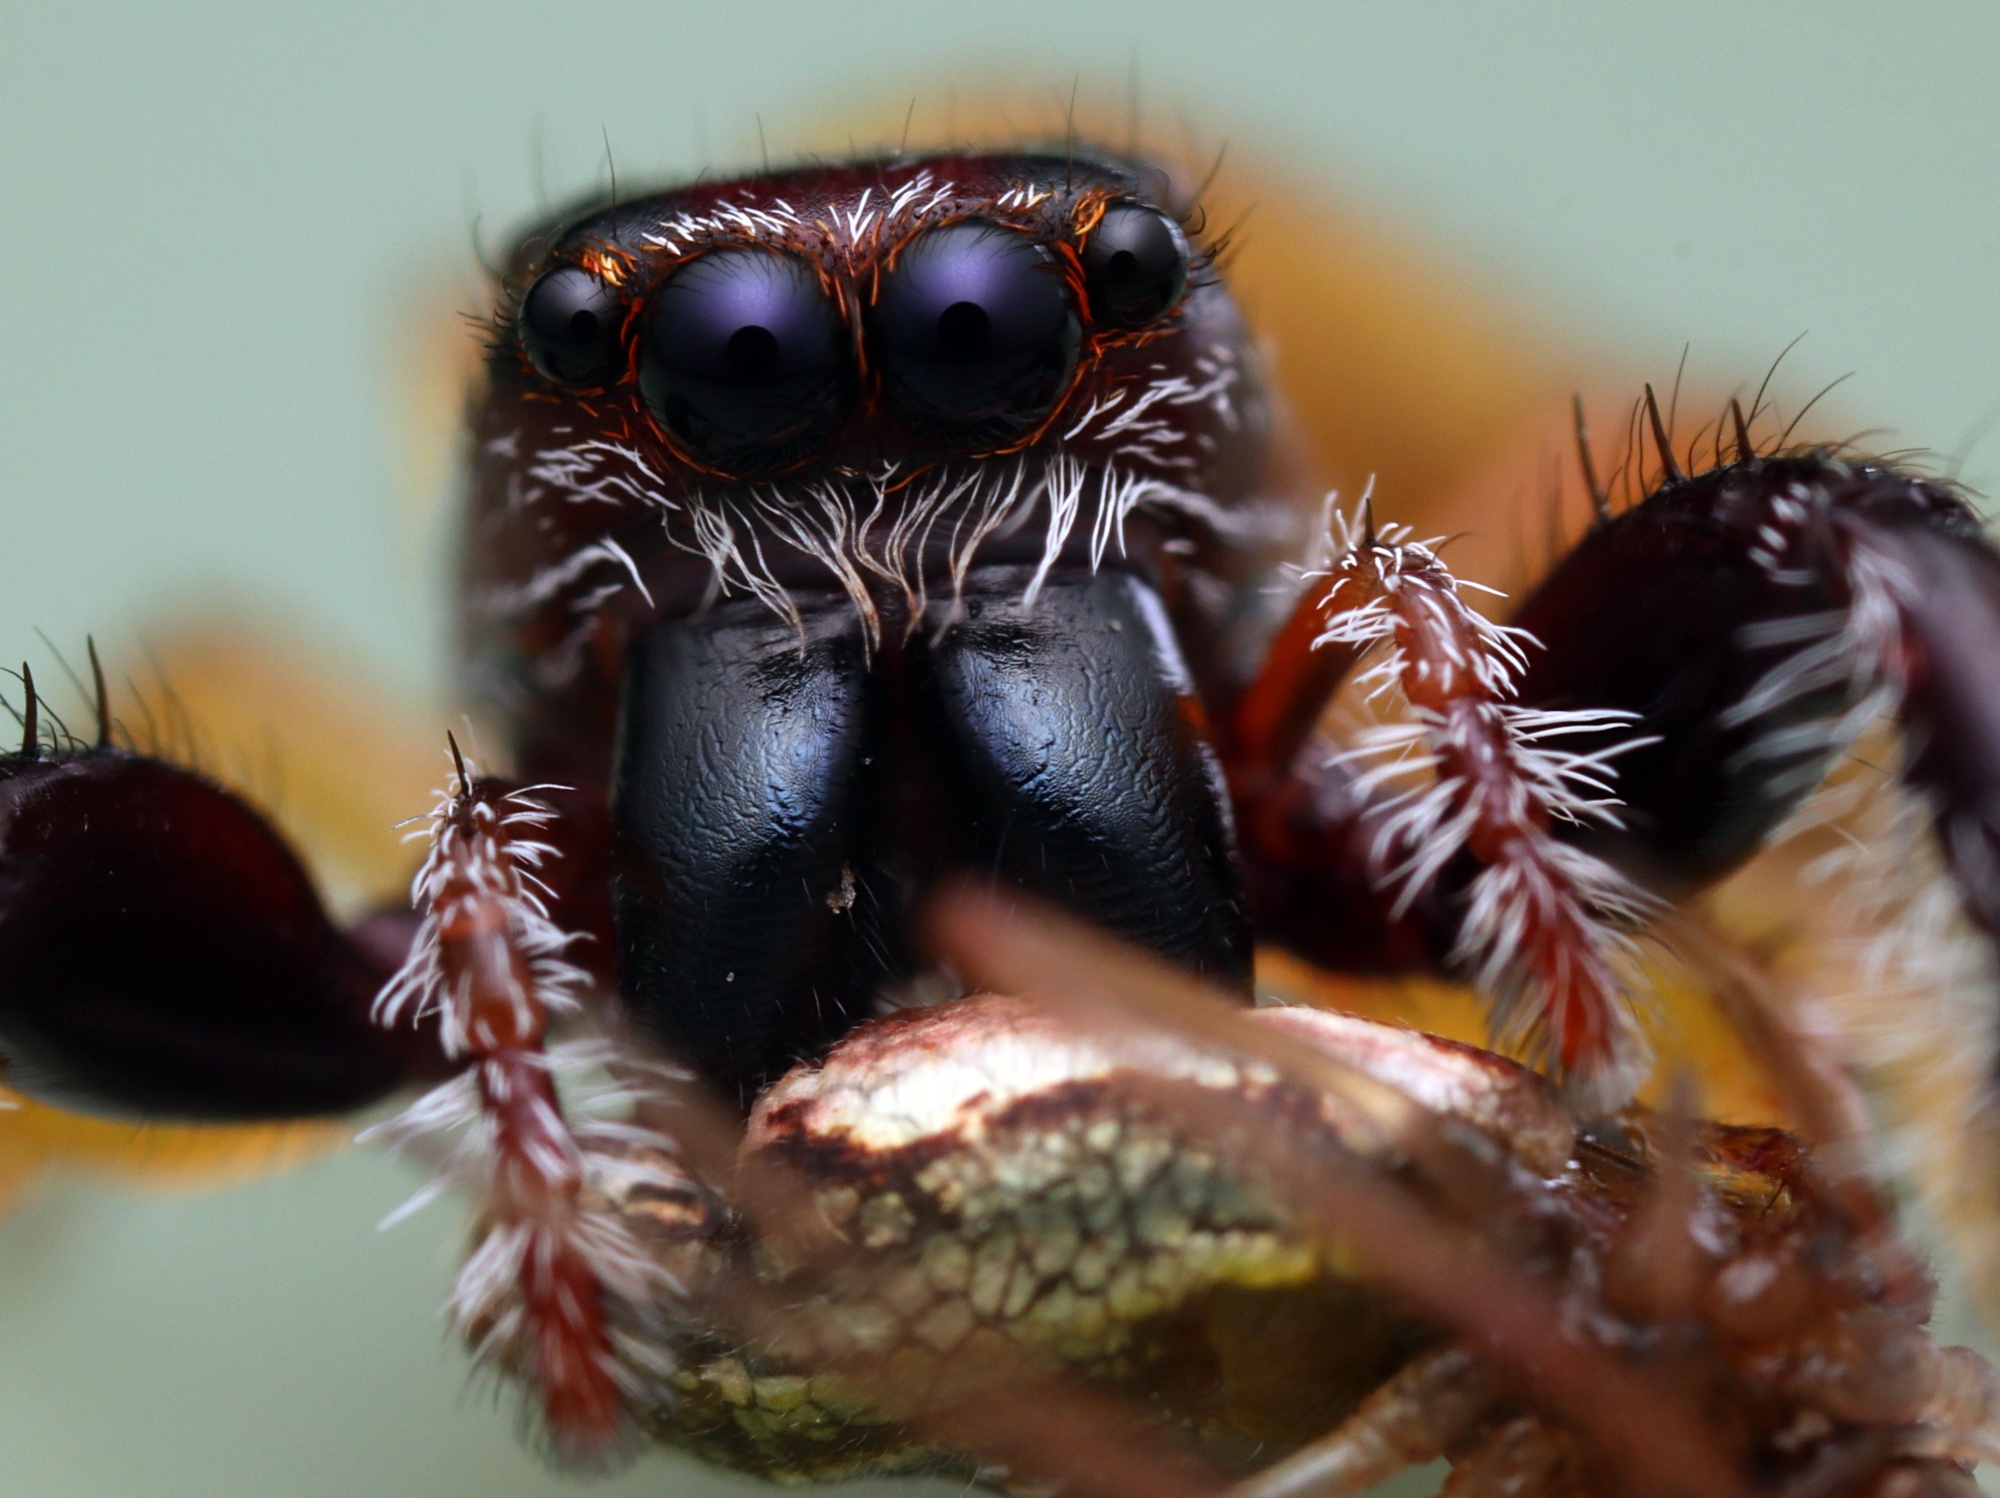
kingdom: Animalia
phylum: Arthropoda
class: Arachnida
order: Araneae
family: Salticidae
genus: Trite
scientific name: Trite planiceps
